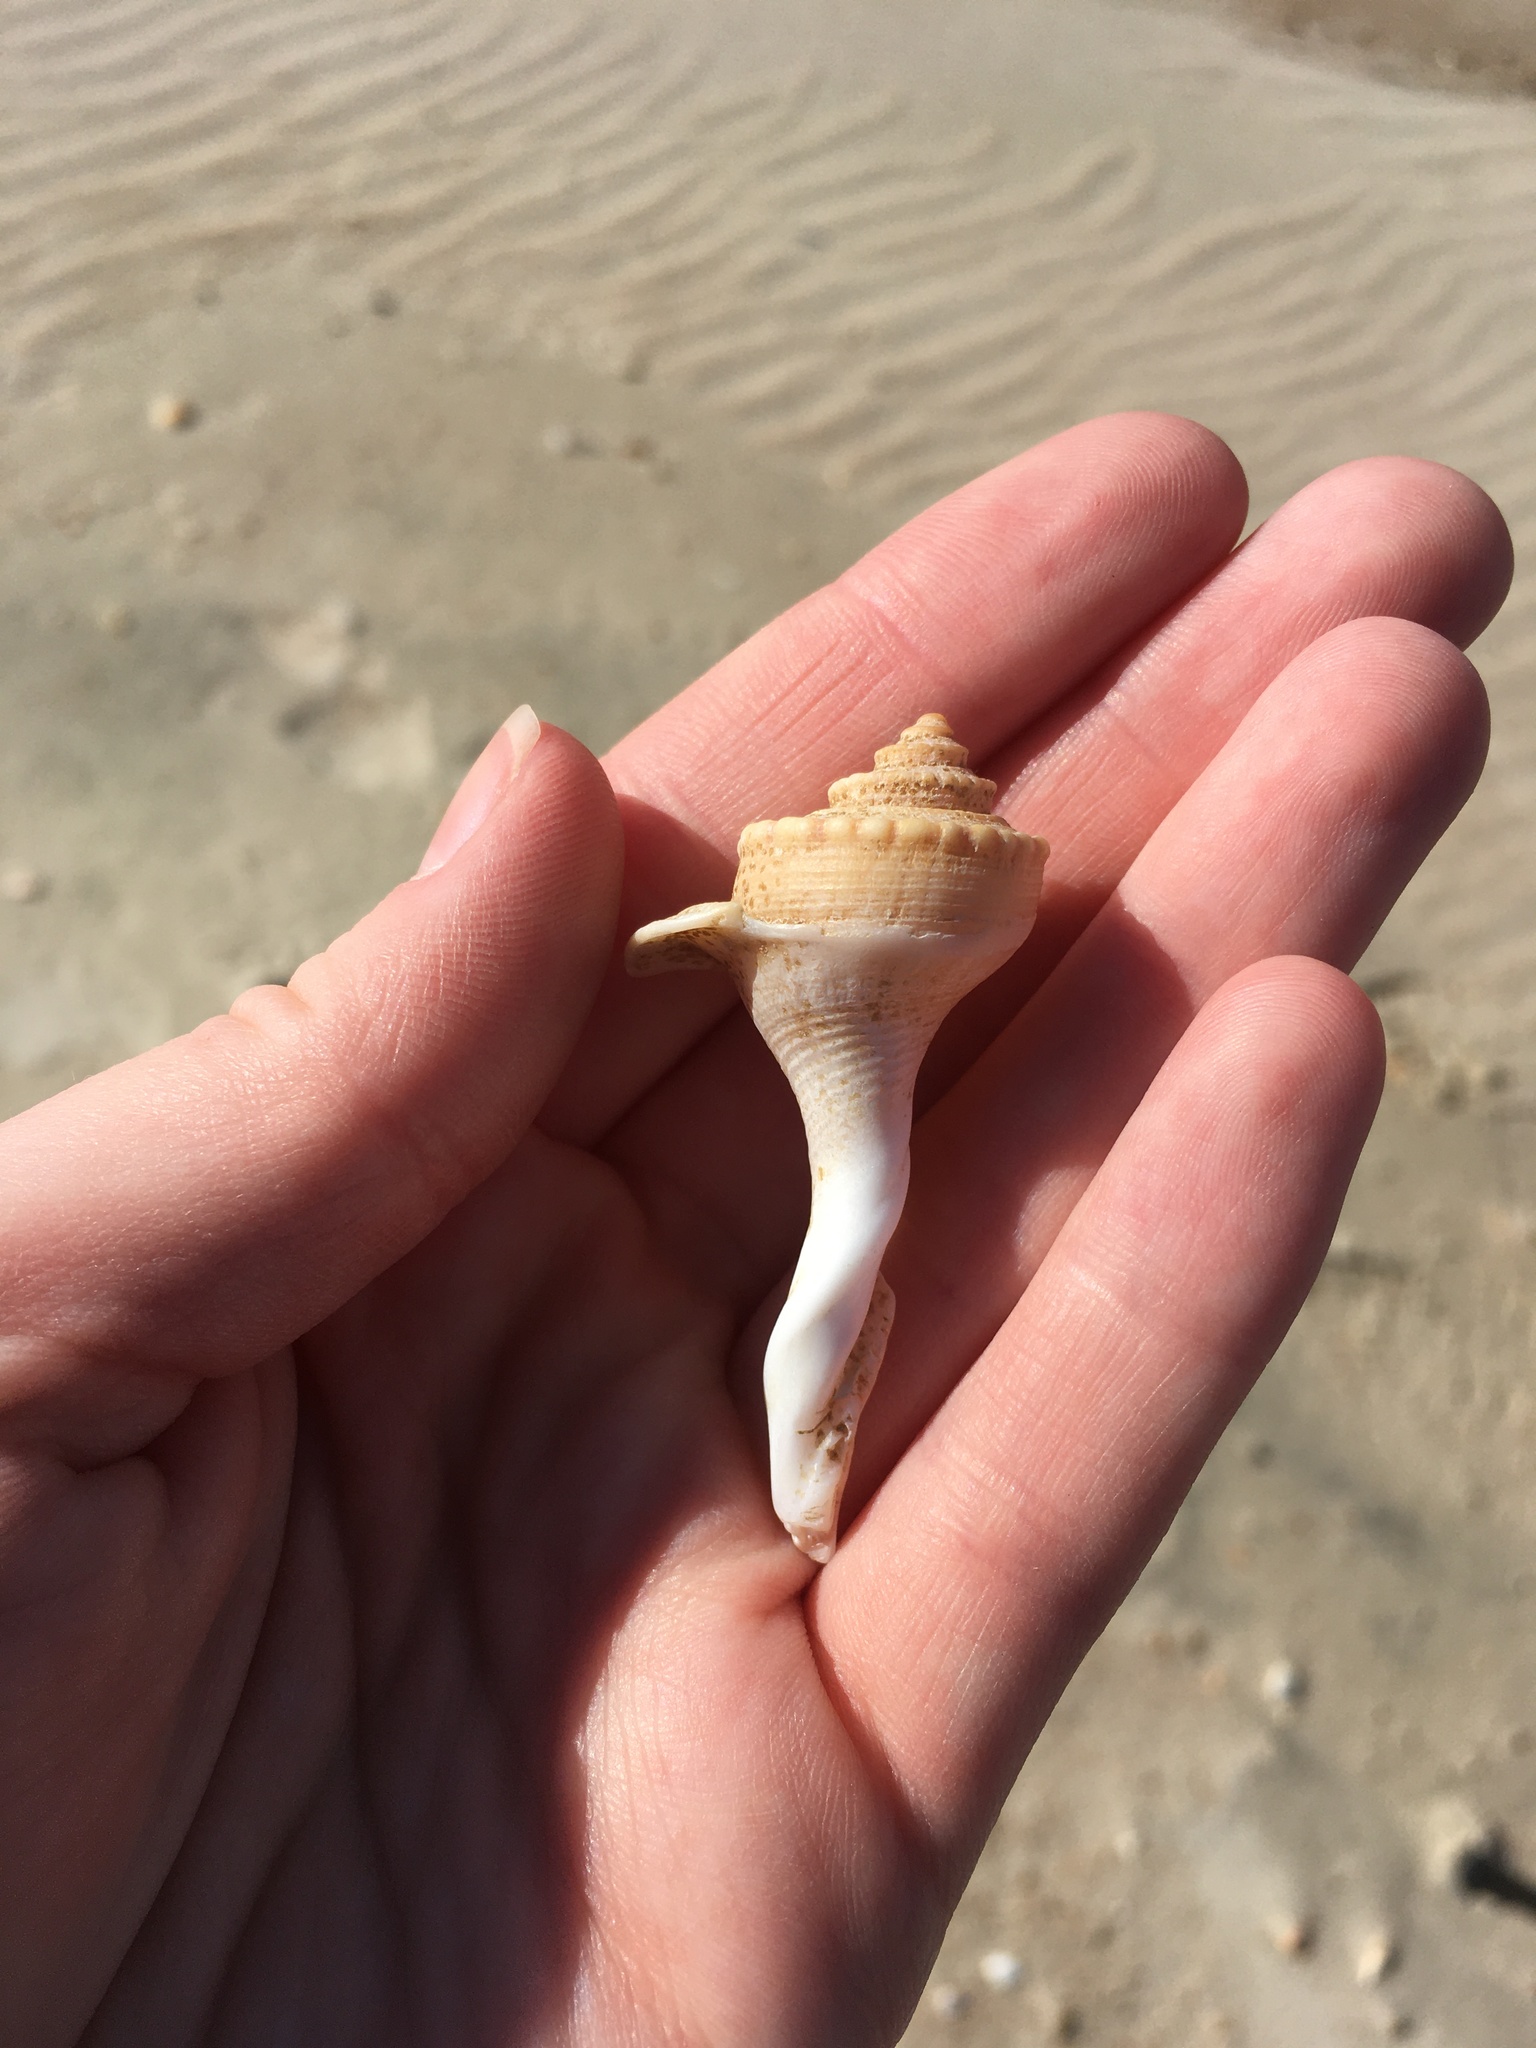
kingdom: Animalia
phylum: Mollusca
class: Gastropoda
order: Neogastropoda
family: Busyconidae
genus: Busycotypus
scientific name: Busycotypus canaliculatus
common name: Channeled whelk
